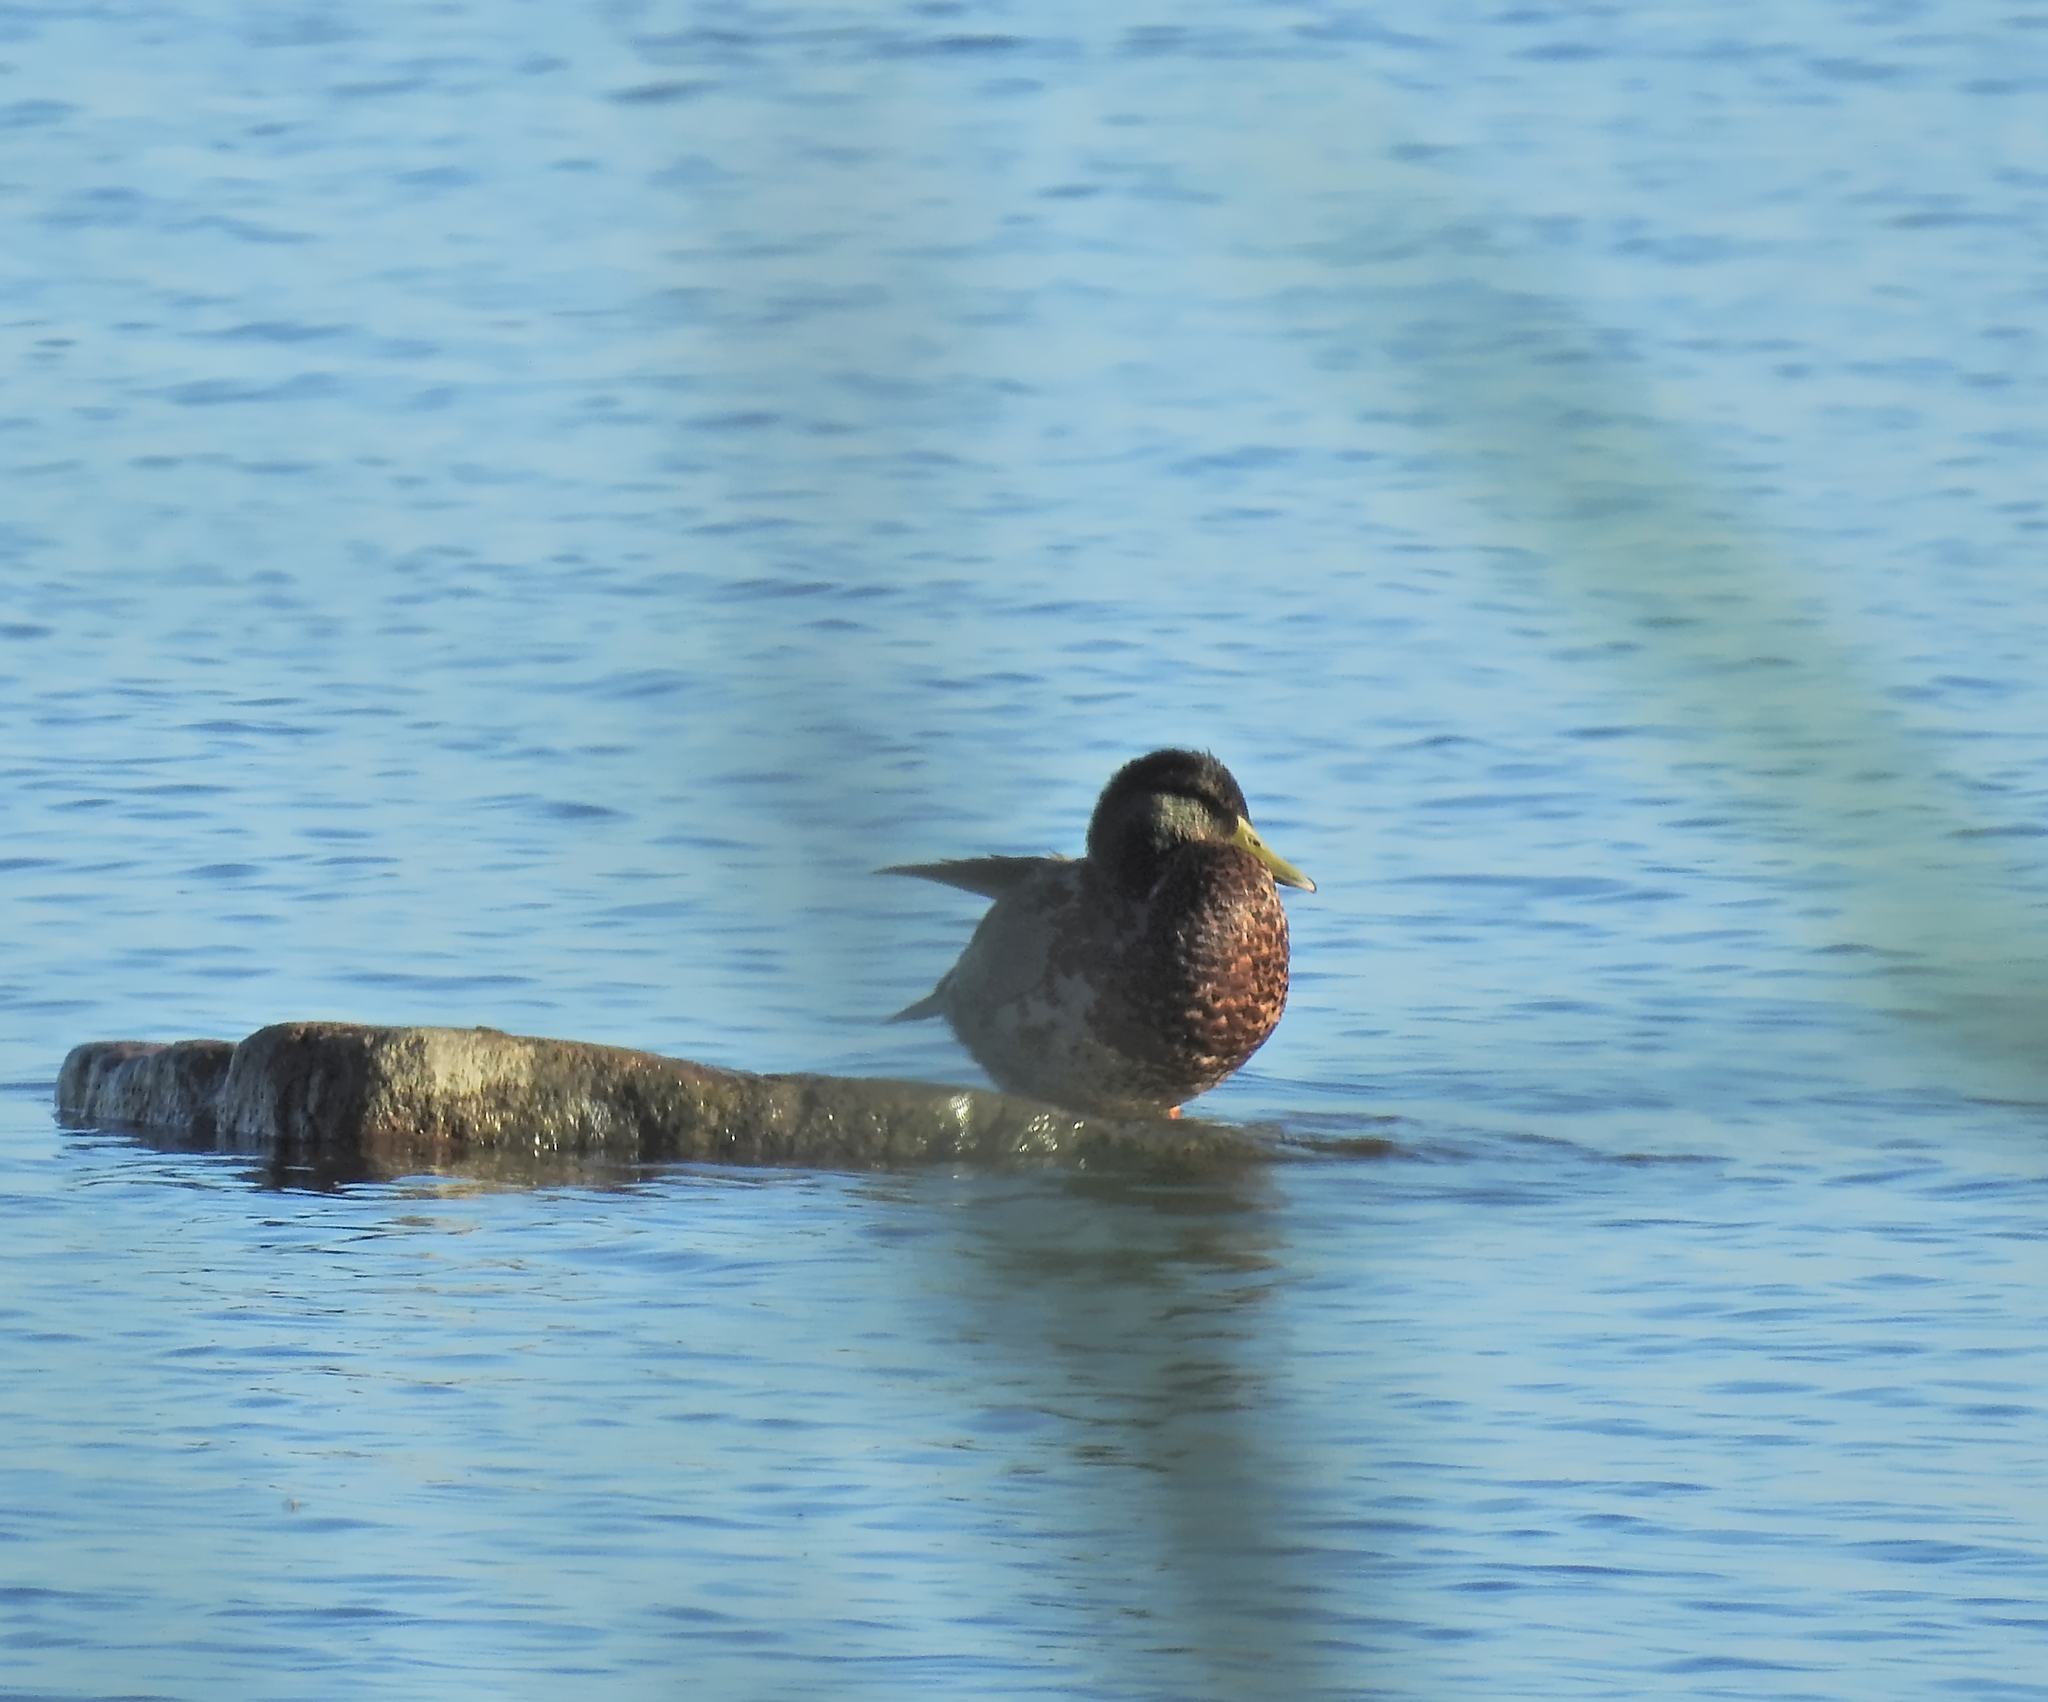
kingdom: Animalia
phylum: Chordata
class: Aves
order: Anseriformes
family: Anatidae
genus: Anas
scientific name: Anas platyrhynchos
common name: Mallard
